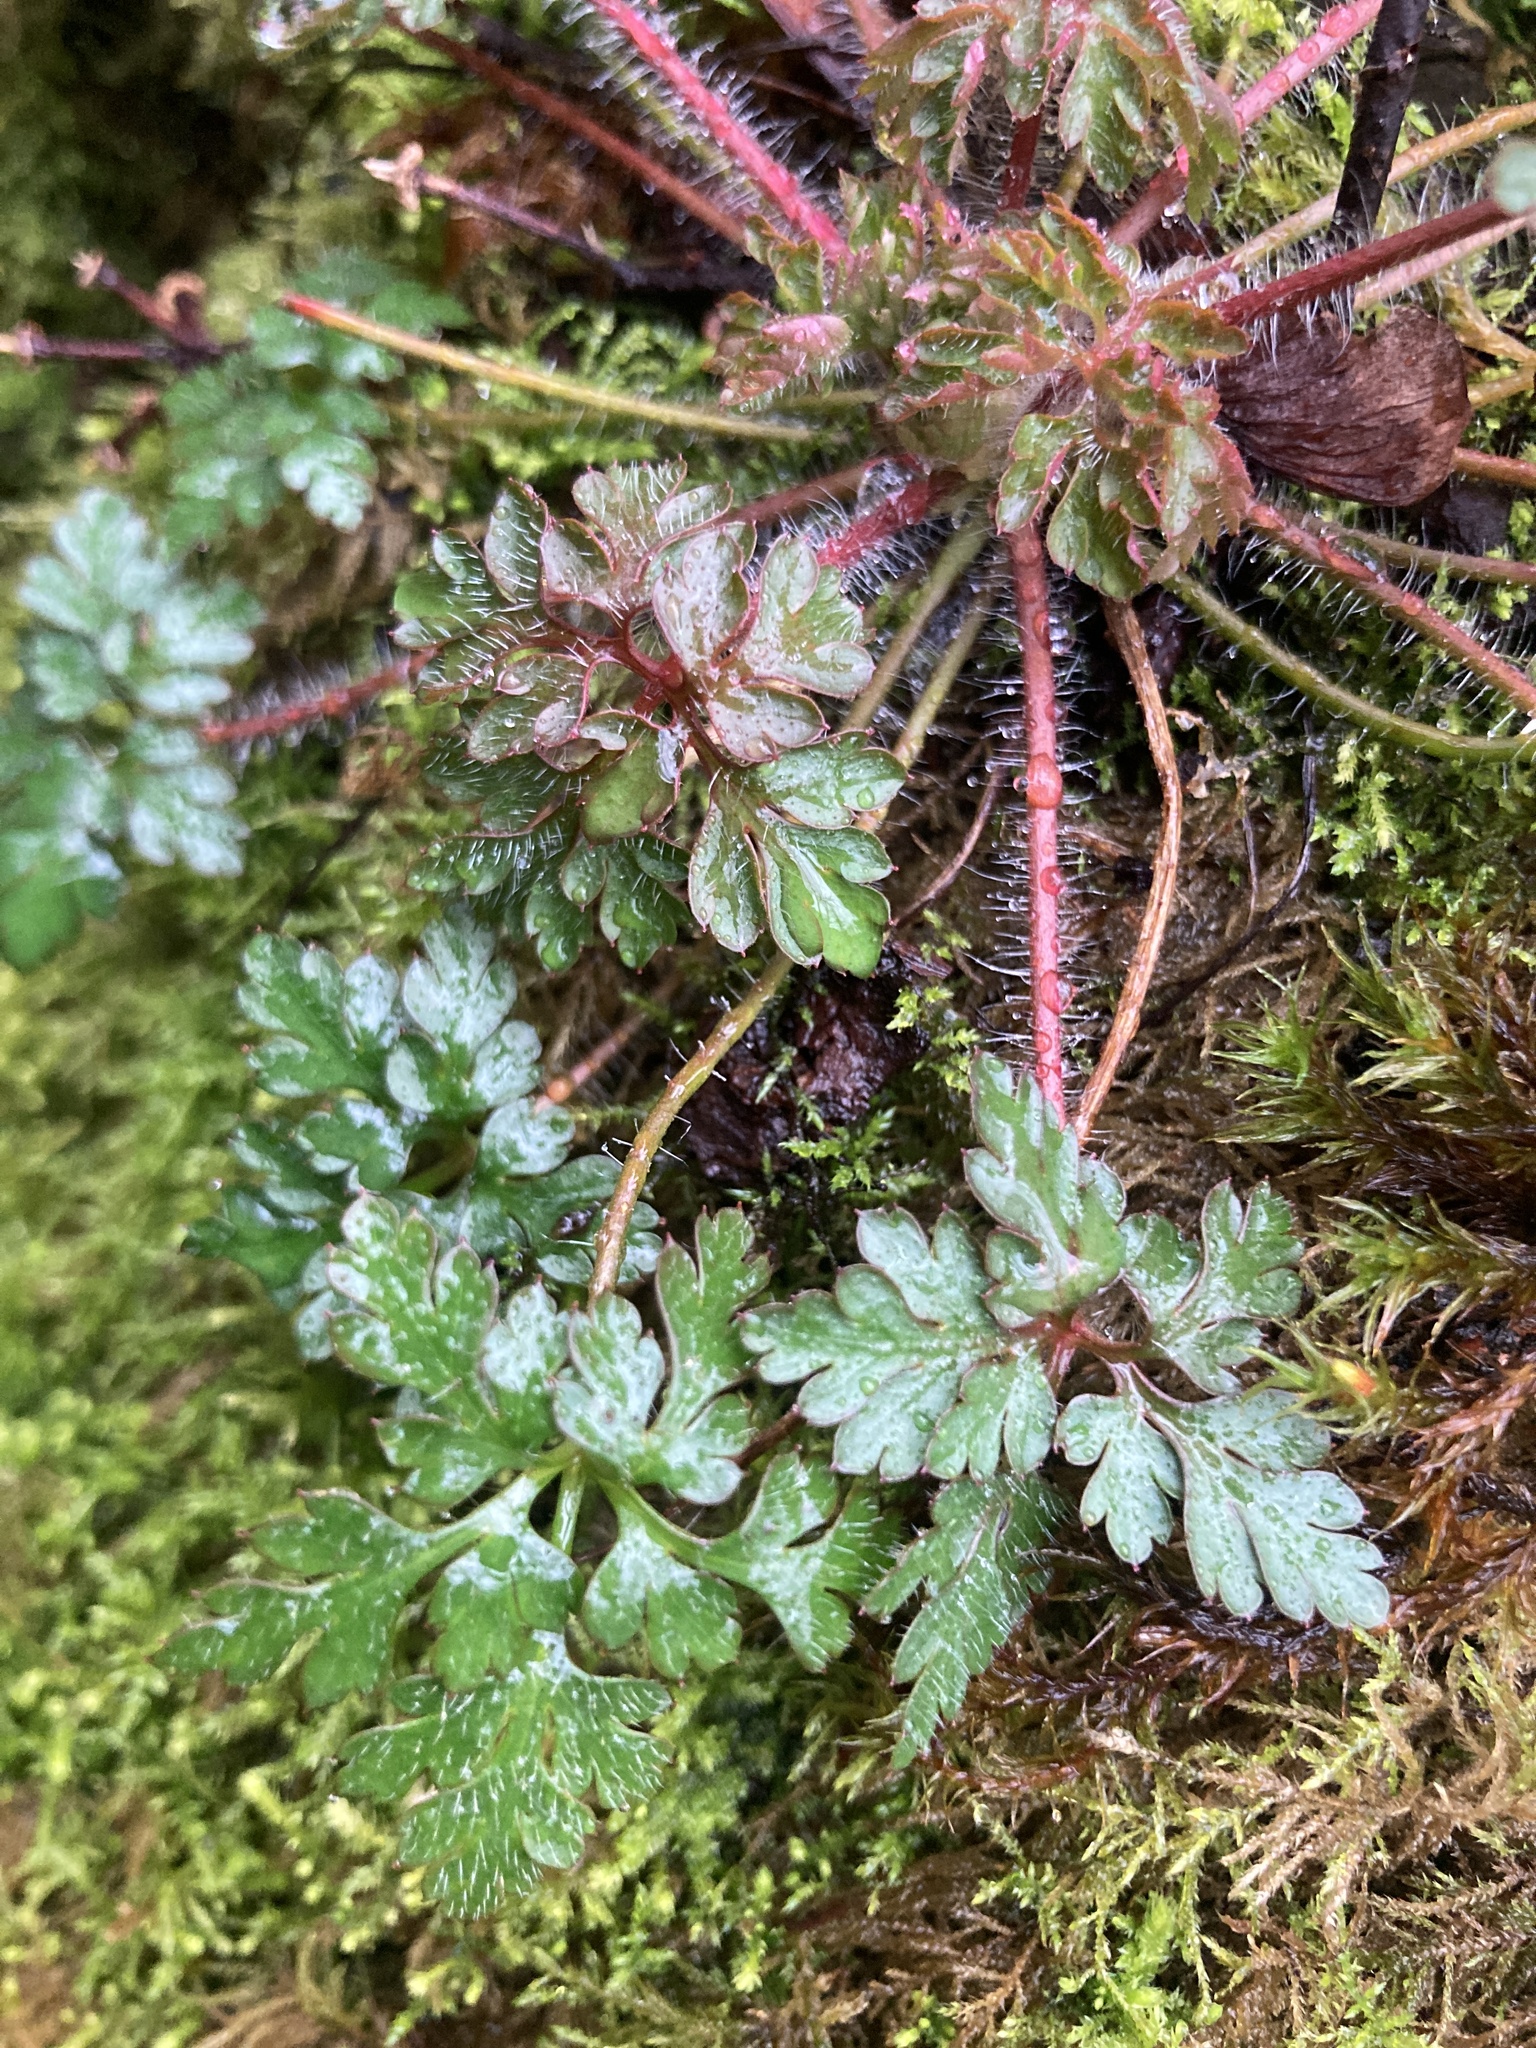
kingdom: Plantae
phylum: Tracheophyta
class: Magnoliopsida
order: Geraniales
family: Geraniaceae
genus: Geranium
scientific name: Geranium robertianum
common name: Herb-robert
